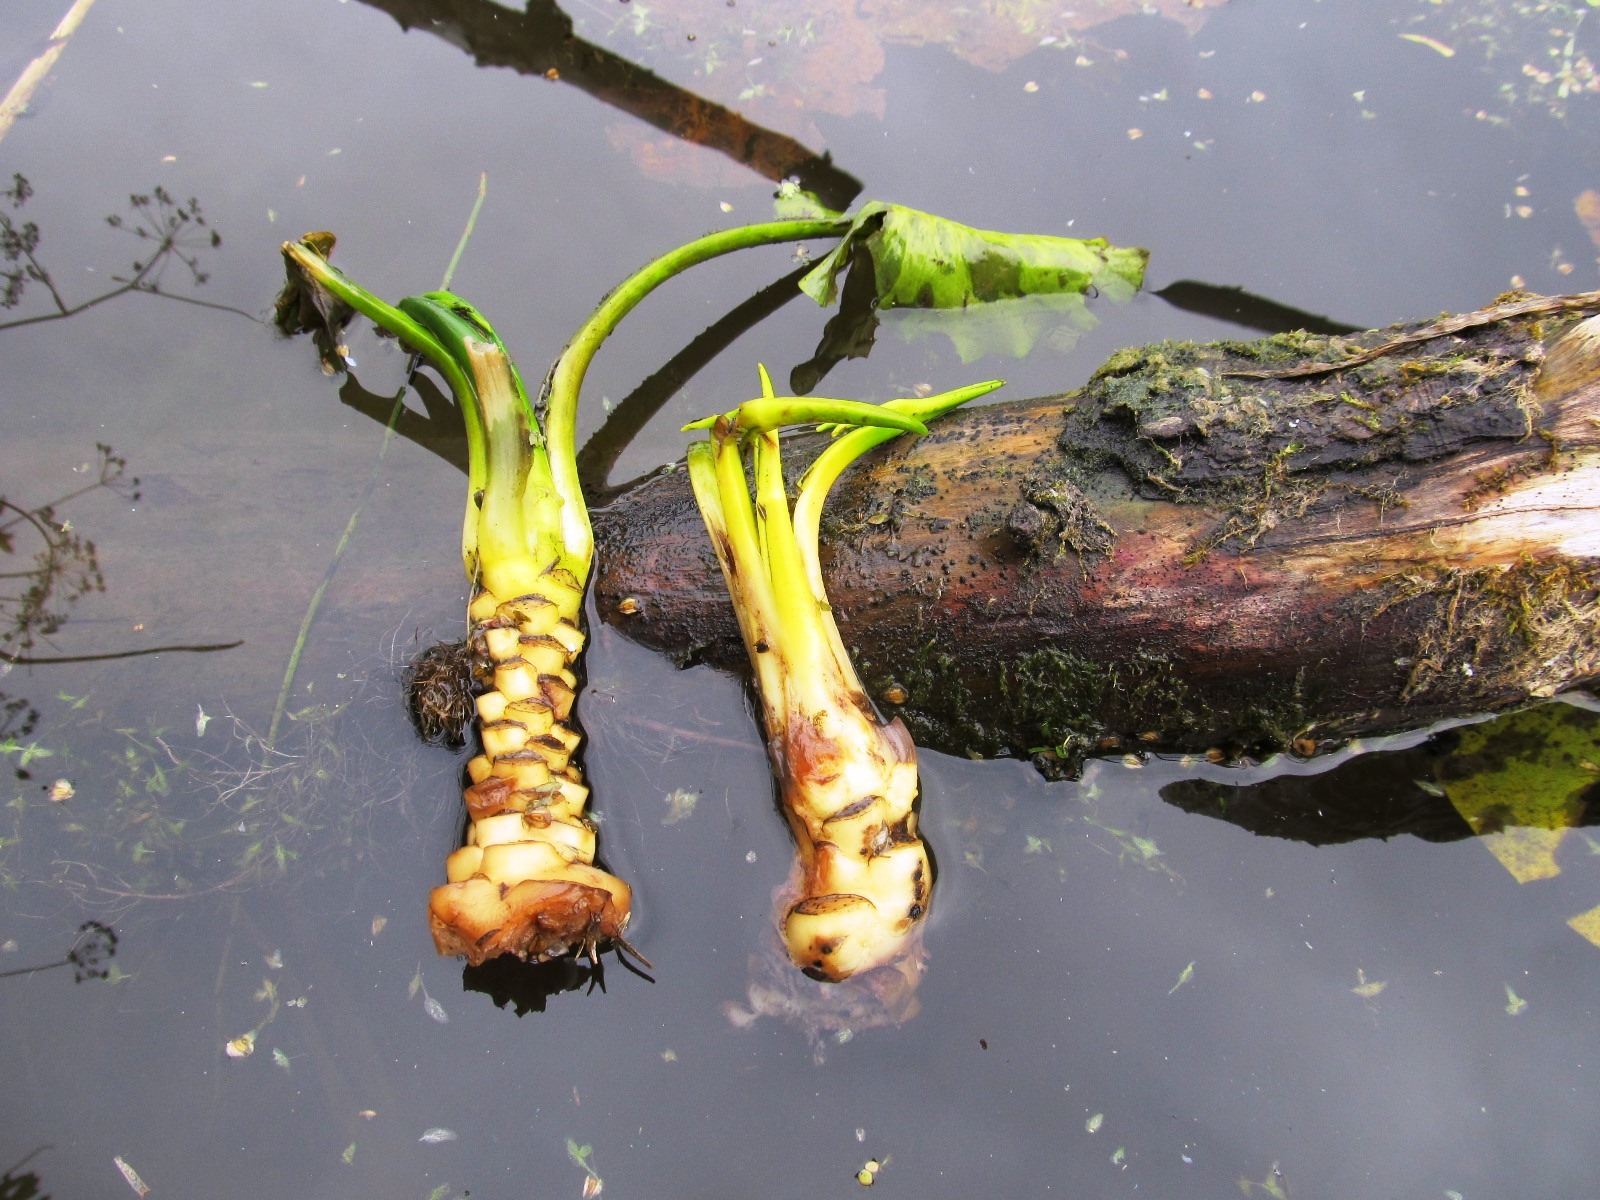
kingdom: Plantae
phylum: Tracheophyta
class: Magnoliopsida
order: Nymphaeales
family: Nymphaeaceae
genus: Nuphar
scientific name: Nuphar lutea
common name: Yellow water-lily
